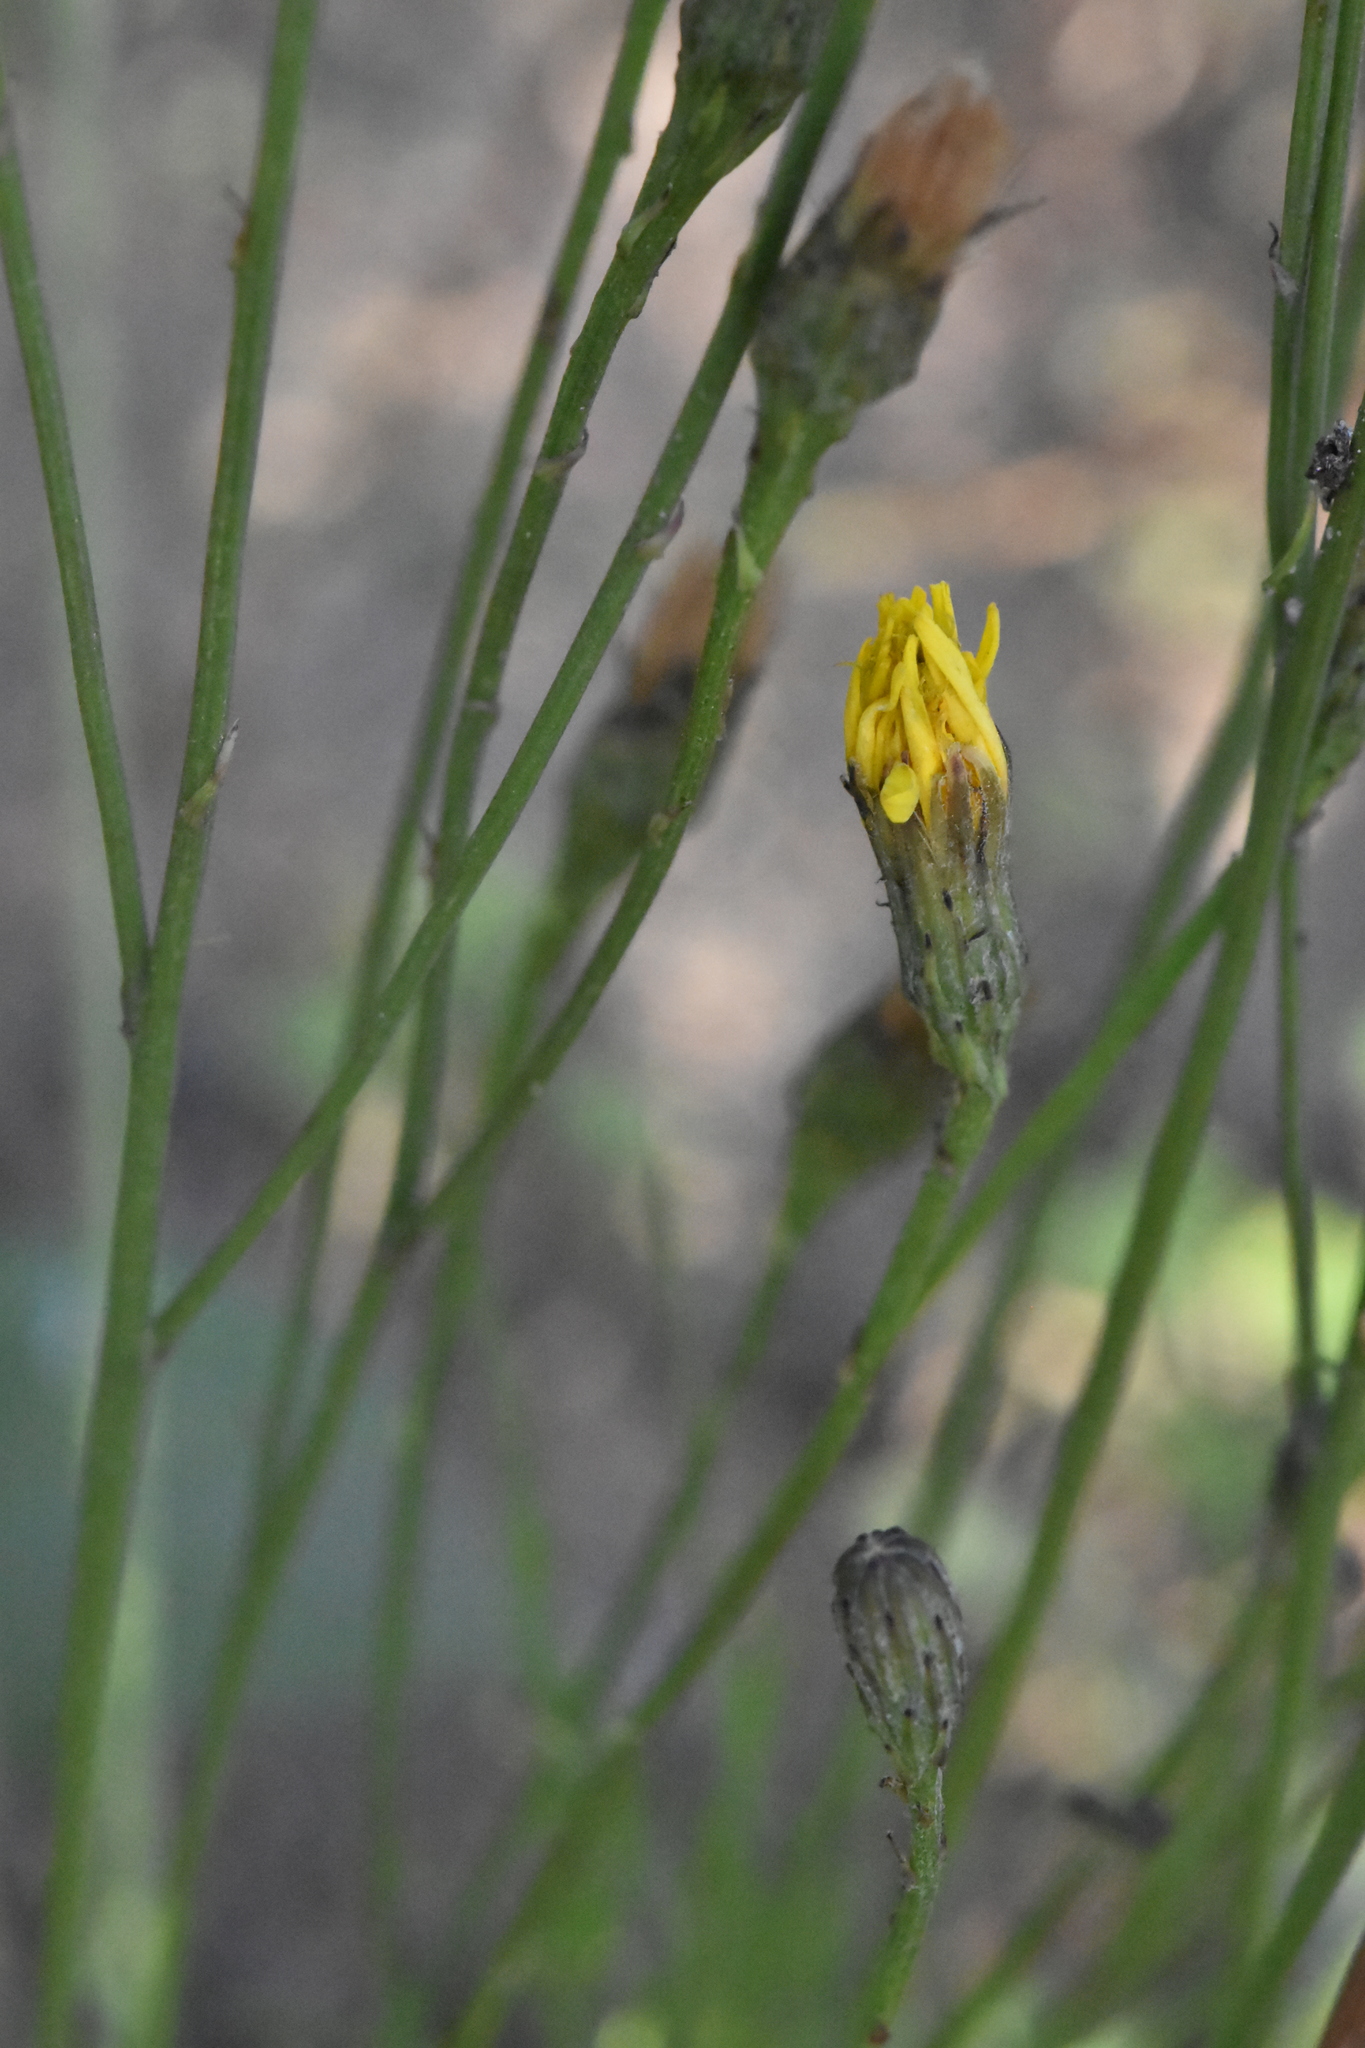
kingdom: Plantae
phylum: Tracheophyta
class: Magnoliopsida
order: Asterales
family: Asteraceae
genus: Scorzoneroides
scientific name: Scorzoneroides autumnalis
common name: Autumn hawkbit
